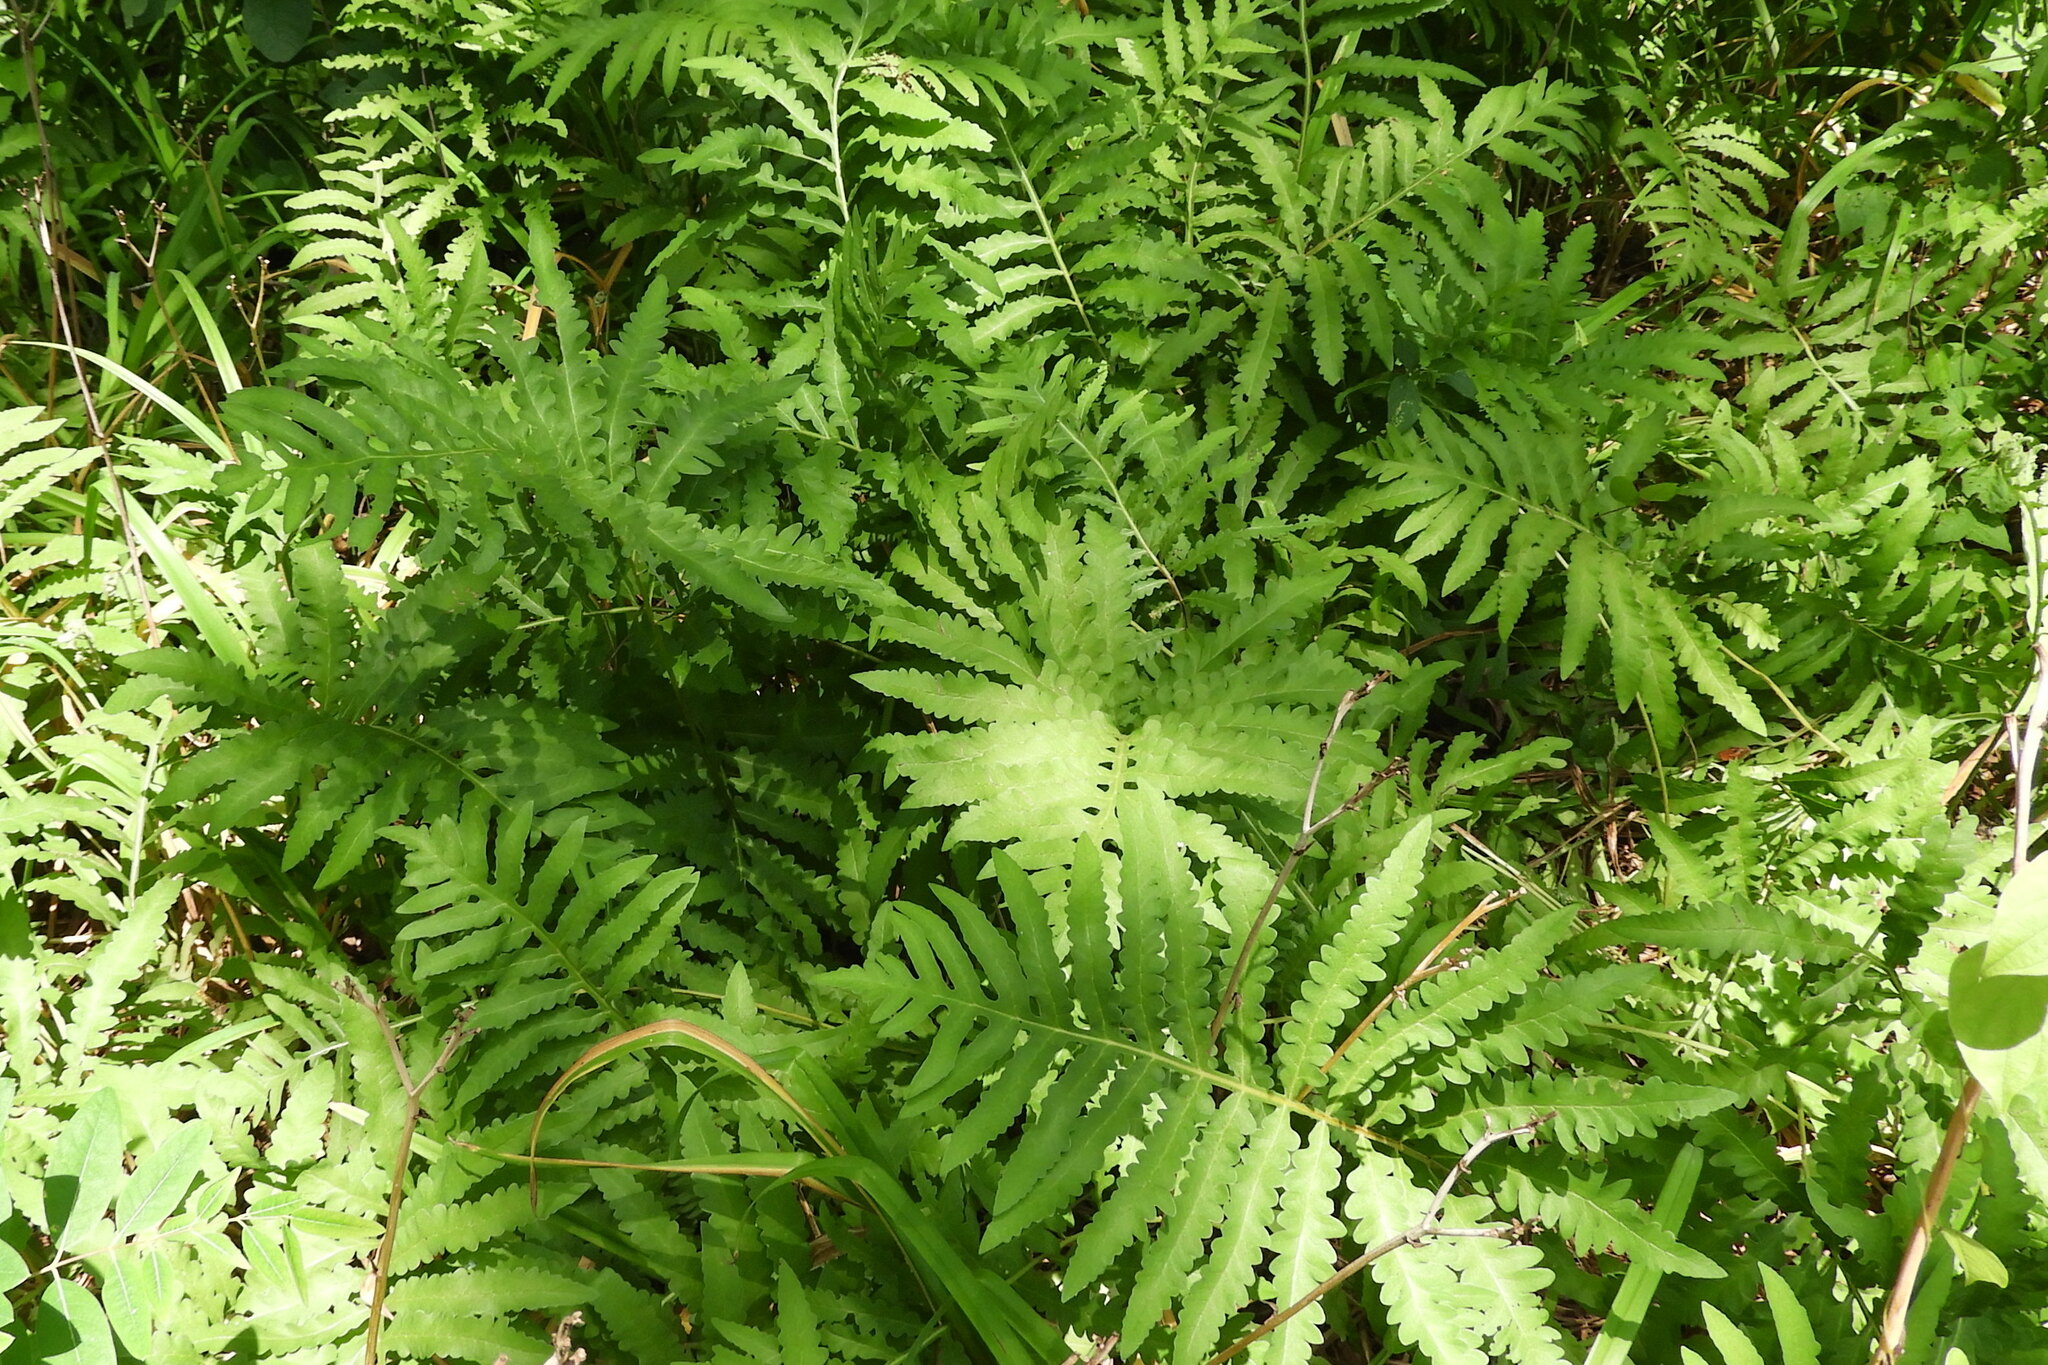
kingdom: Plantae
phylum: Tracheophyta
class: Polypodiopsida
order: Polypodiales
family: Onocleaceae
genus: Onoclea
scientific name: Onoclea sensibilis
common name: Sensitive fern
